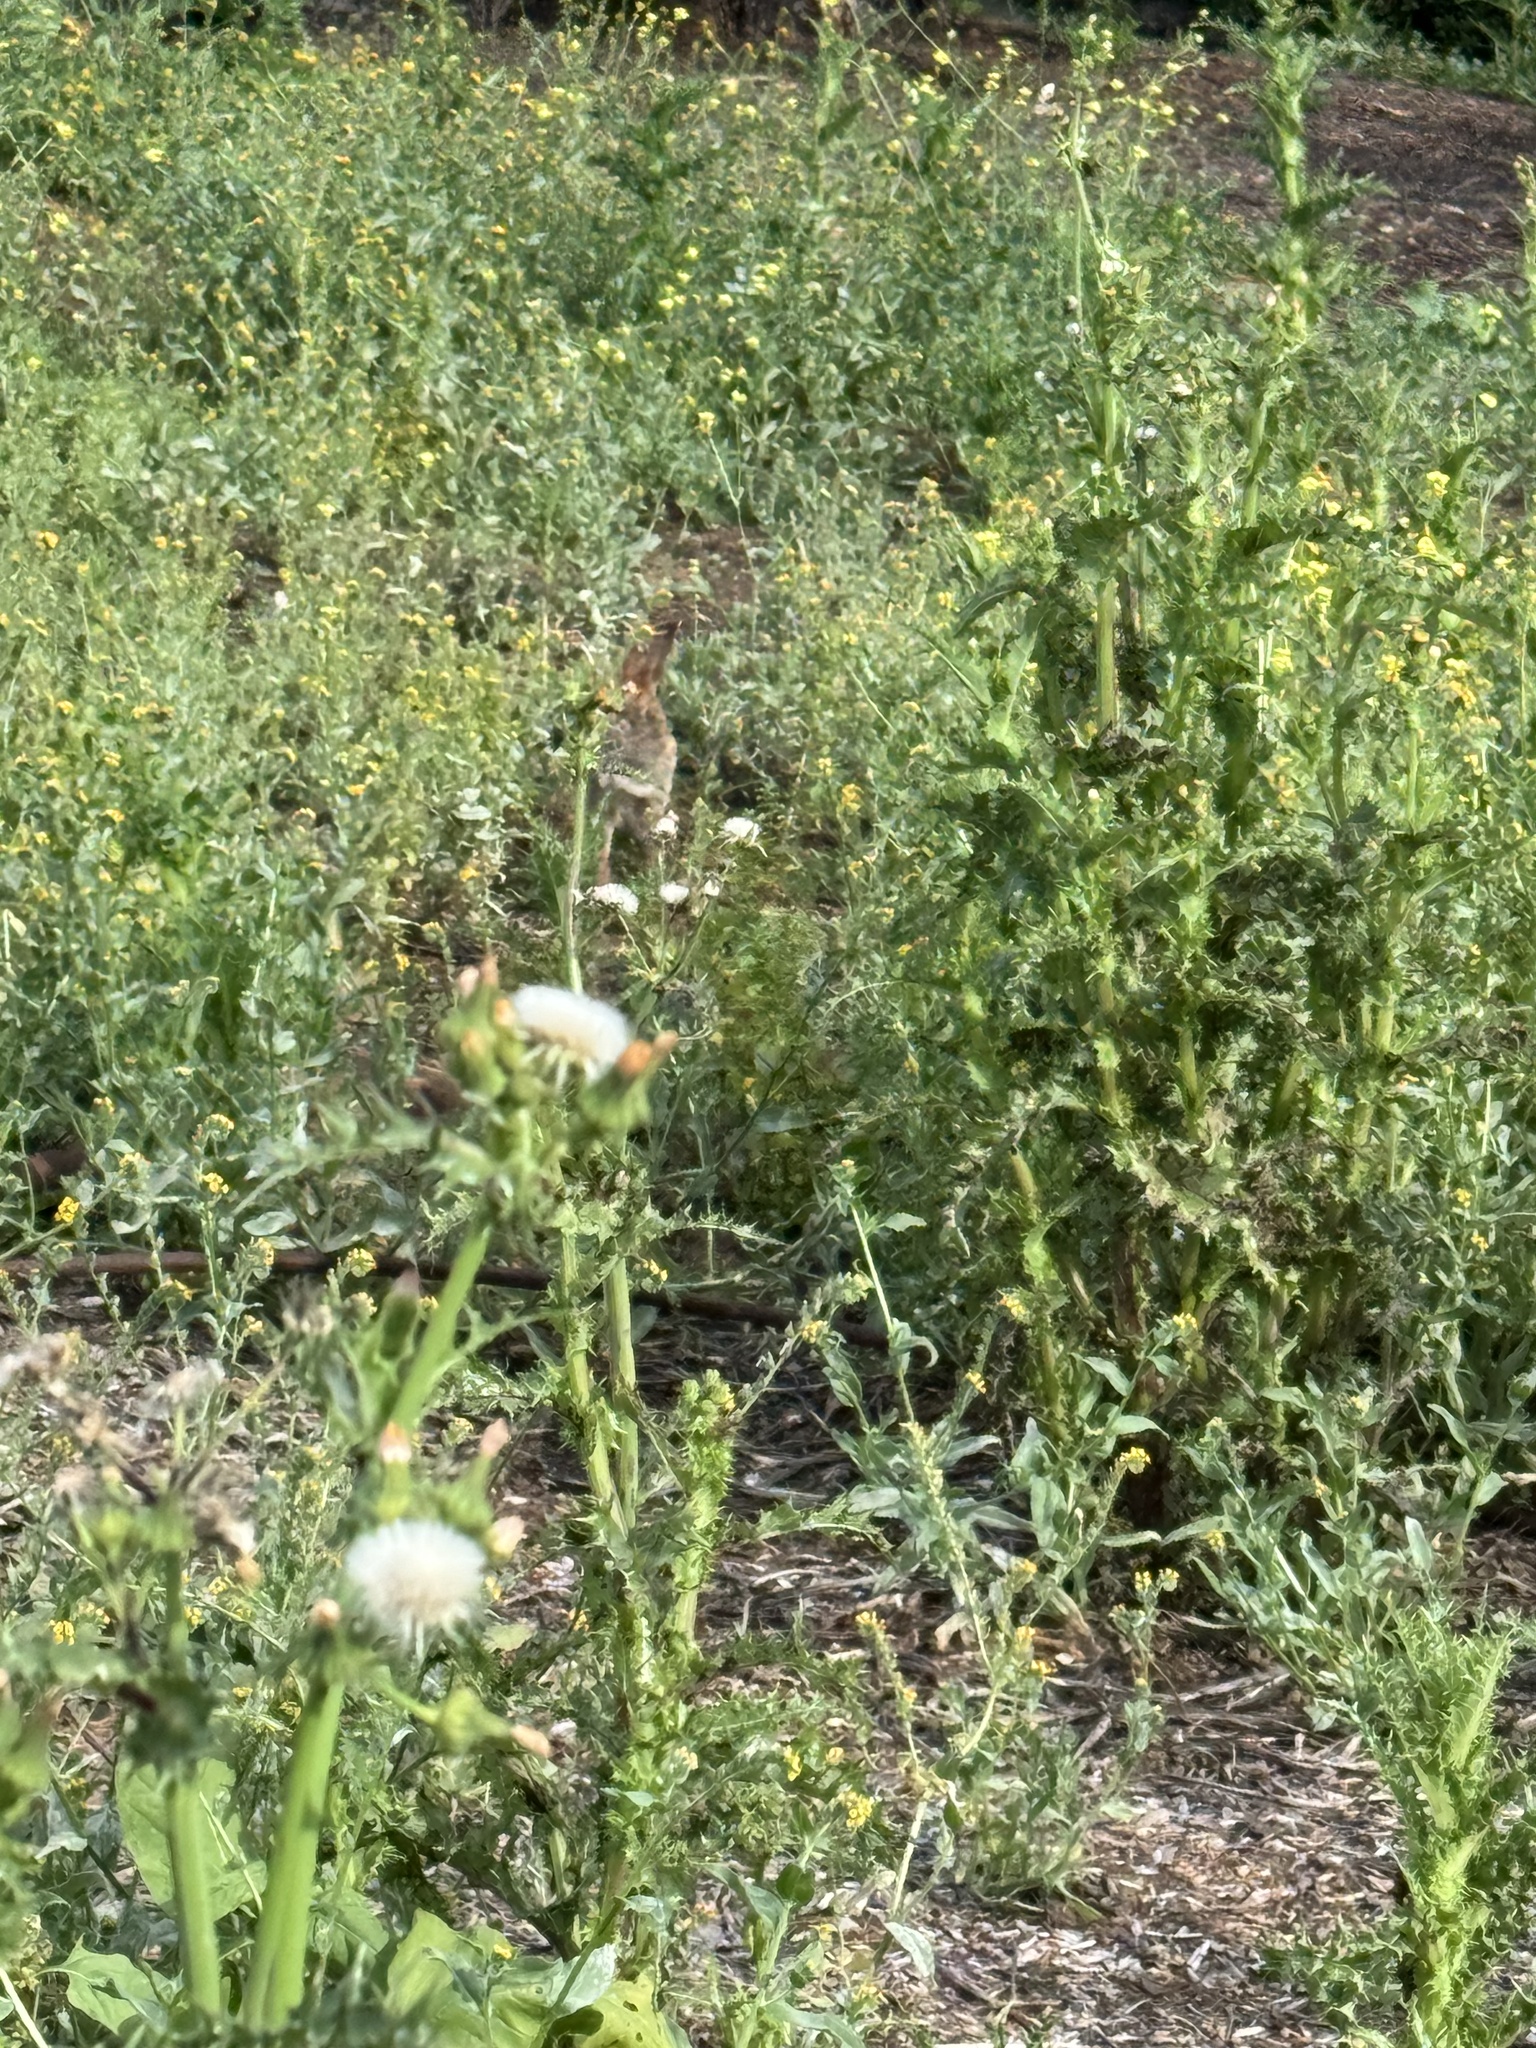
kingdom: Animalia
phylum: Chordata
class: Mammalia
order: Lagomorpha
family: Leporidae
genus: Sylvilagus
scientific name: Sylvilagus audubonii
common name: Desert cottontail
